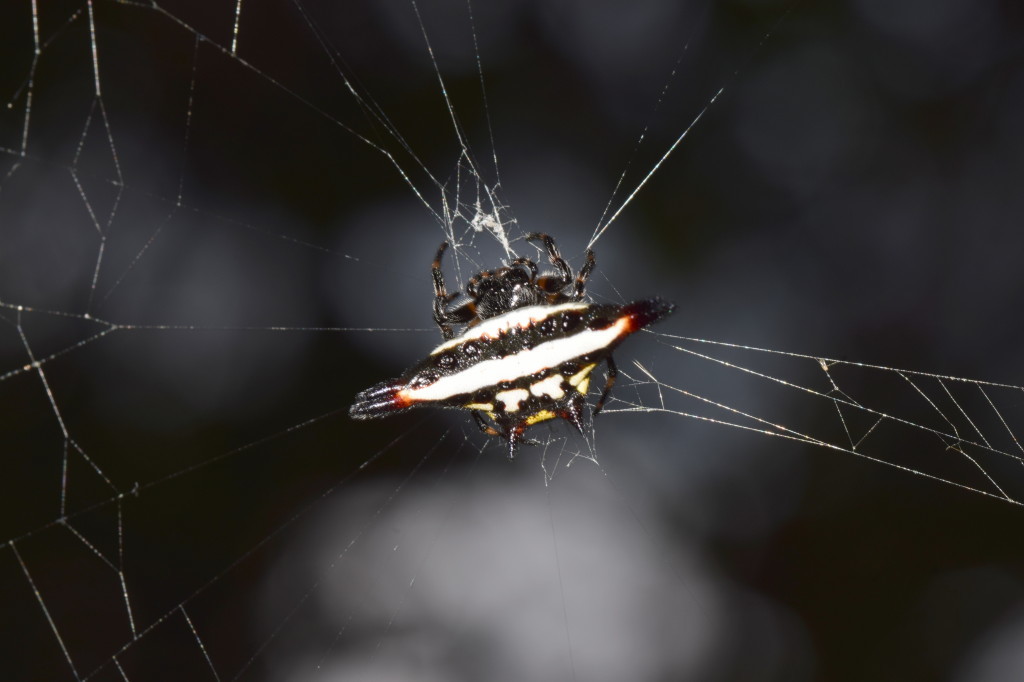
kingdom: Animalia
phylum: Arthropoda
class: Arachnida
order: Araneae
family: Araneidae
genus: Gasteracantha
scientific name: Gasteracantha geminata
